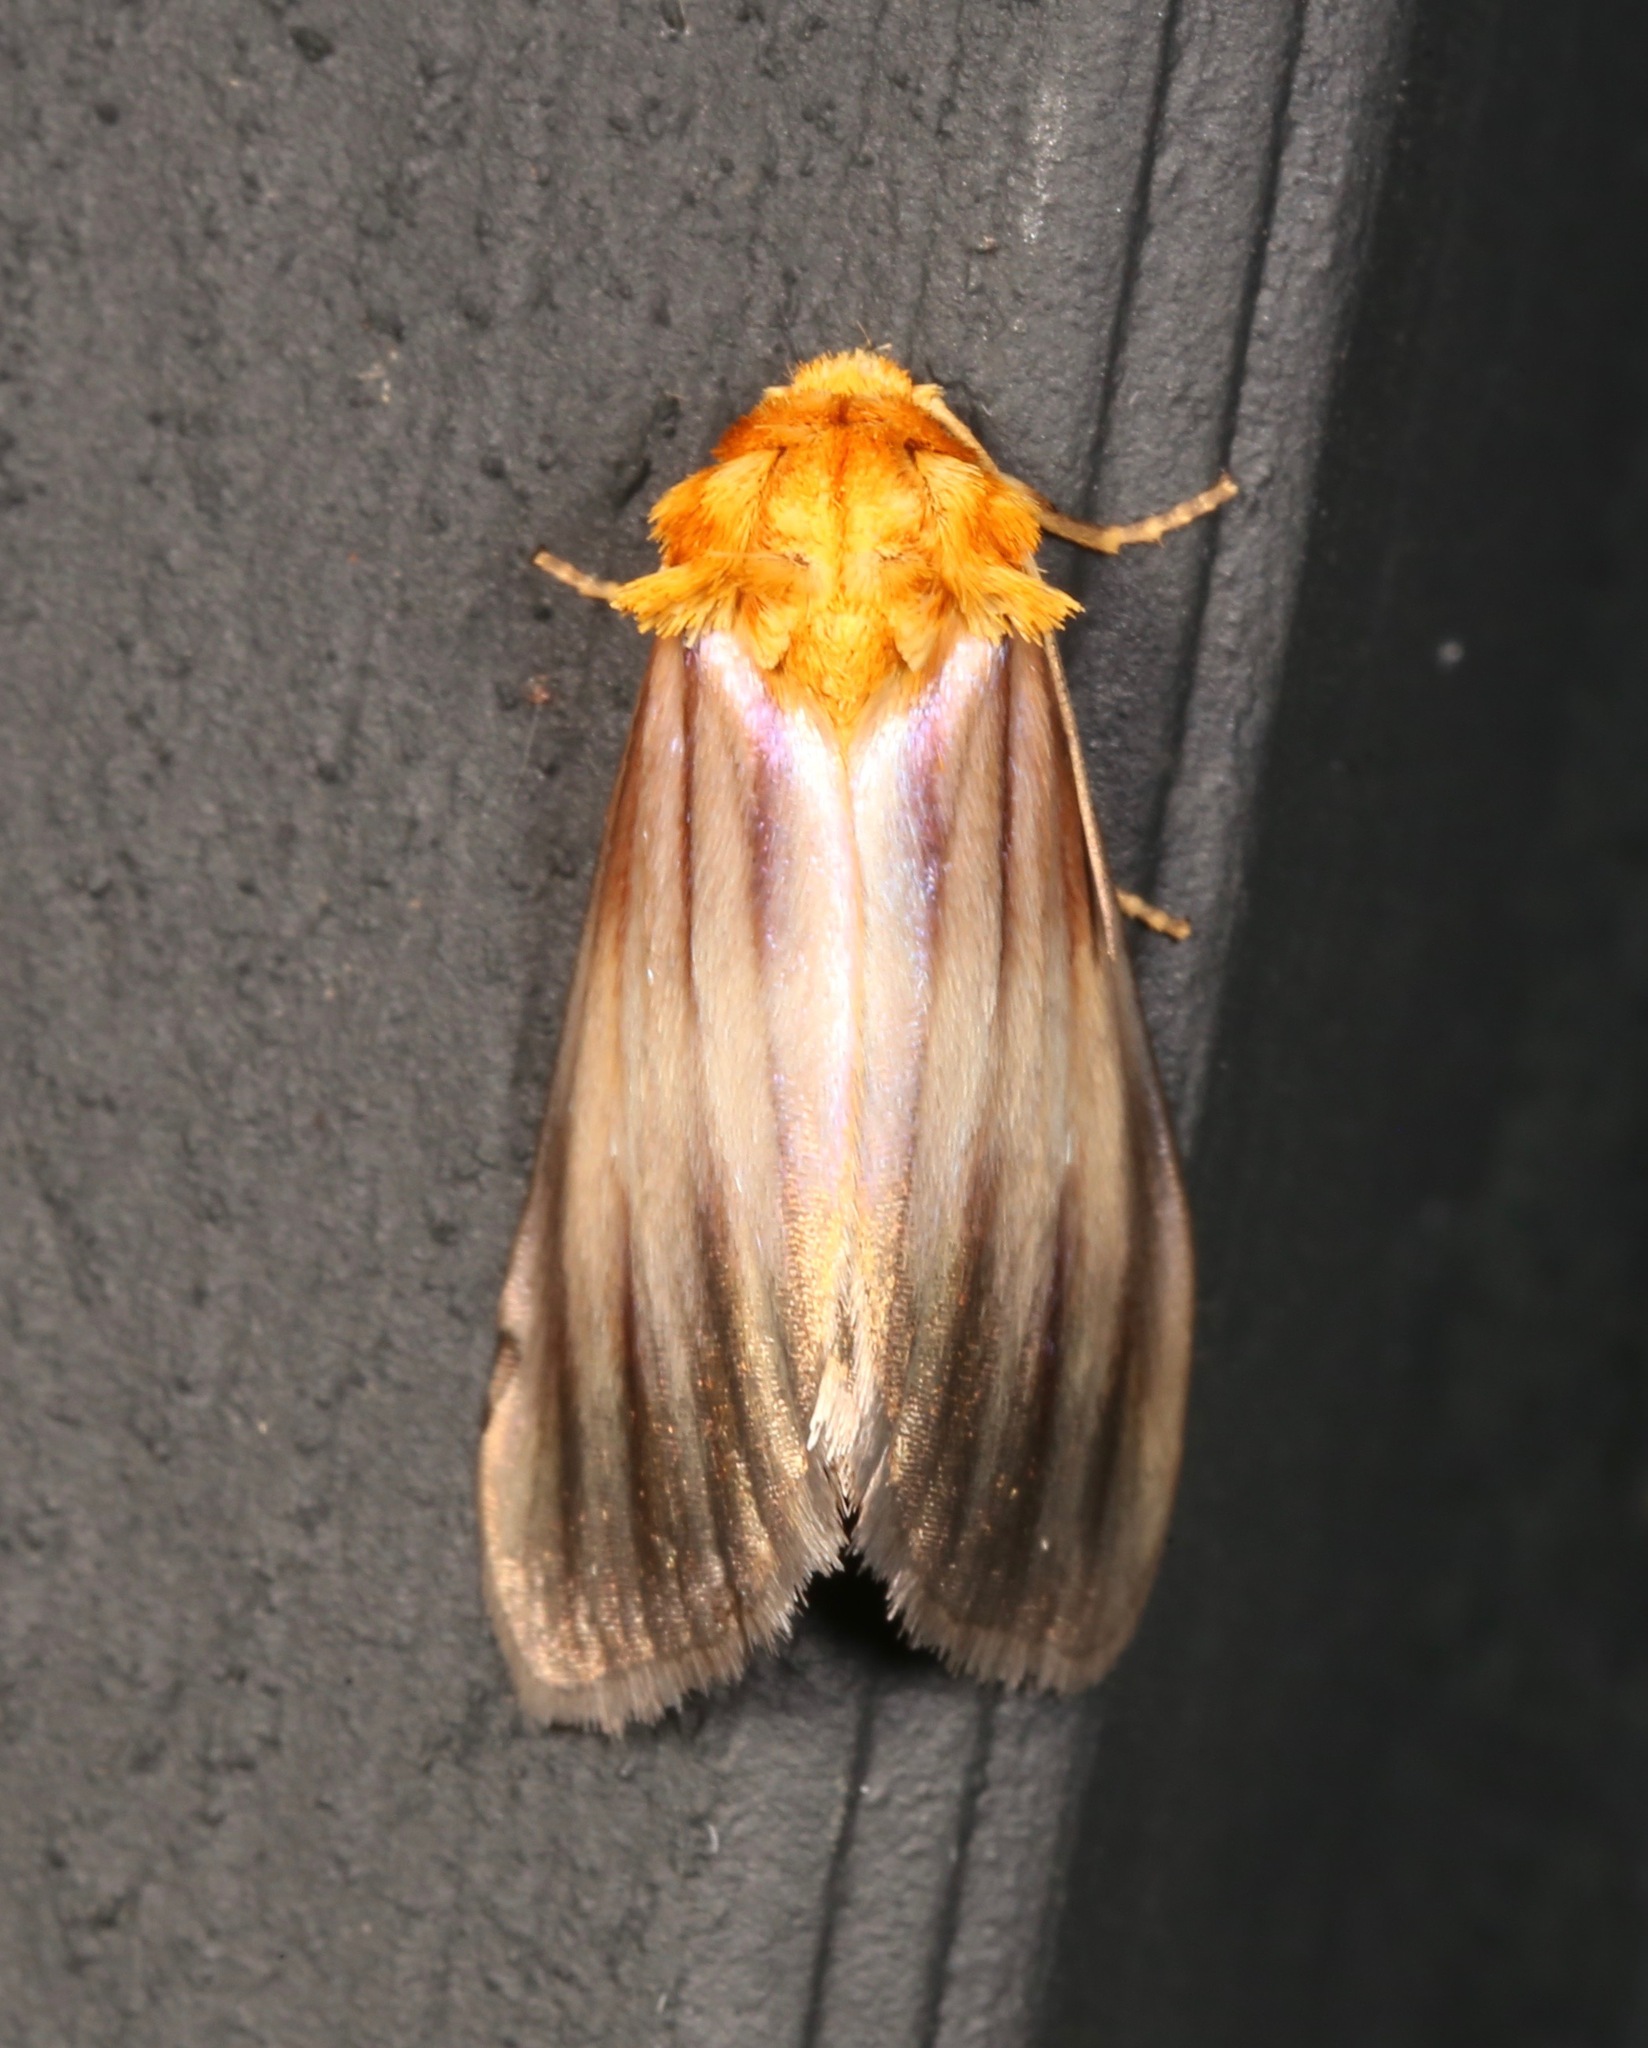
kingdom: Animalia
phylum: Arthropoda
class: Insecta
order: Lepidoptera
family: Noctuidae
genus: Antaplaga
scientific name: Antaplaga plesioglauca
